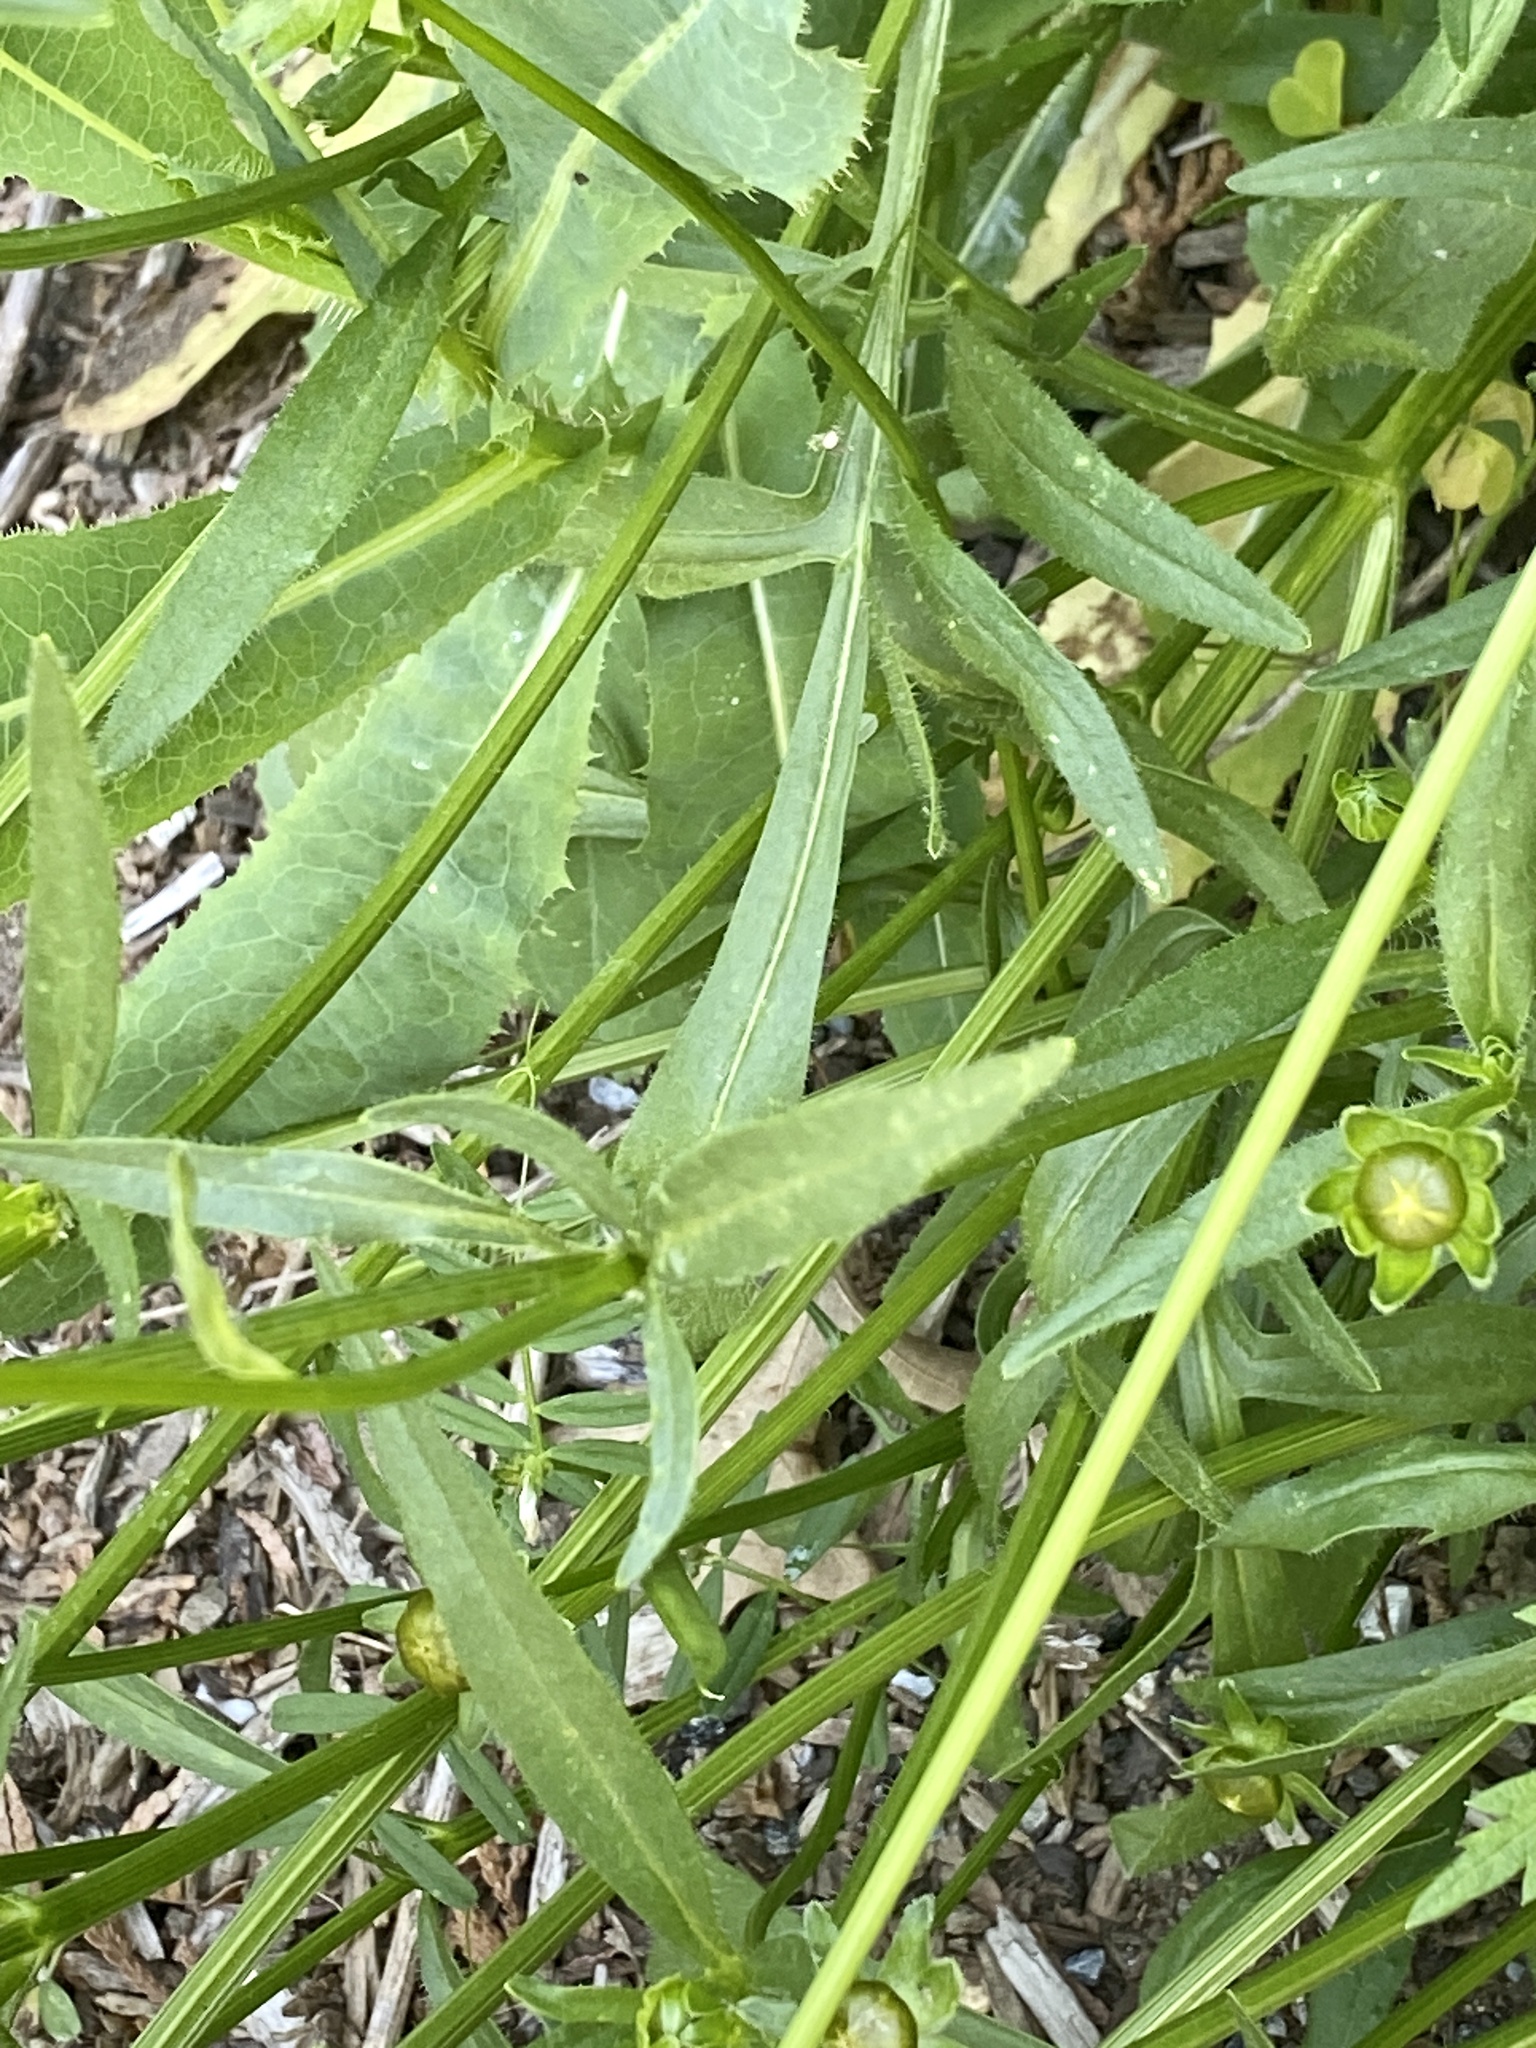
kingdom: Plantae
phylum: Tracheophyta
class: Magnoliopsida
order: Asterales
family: Asteraceae
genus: Coreopsis
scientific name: Coreopsis lanceolata
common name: Garden coreopsis
